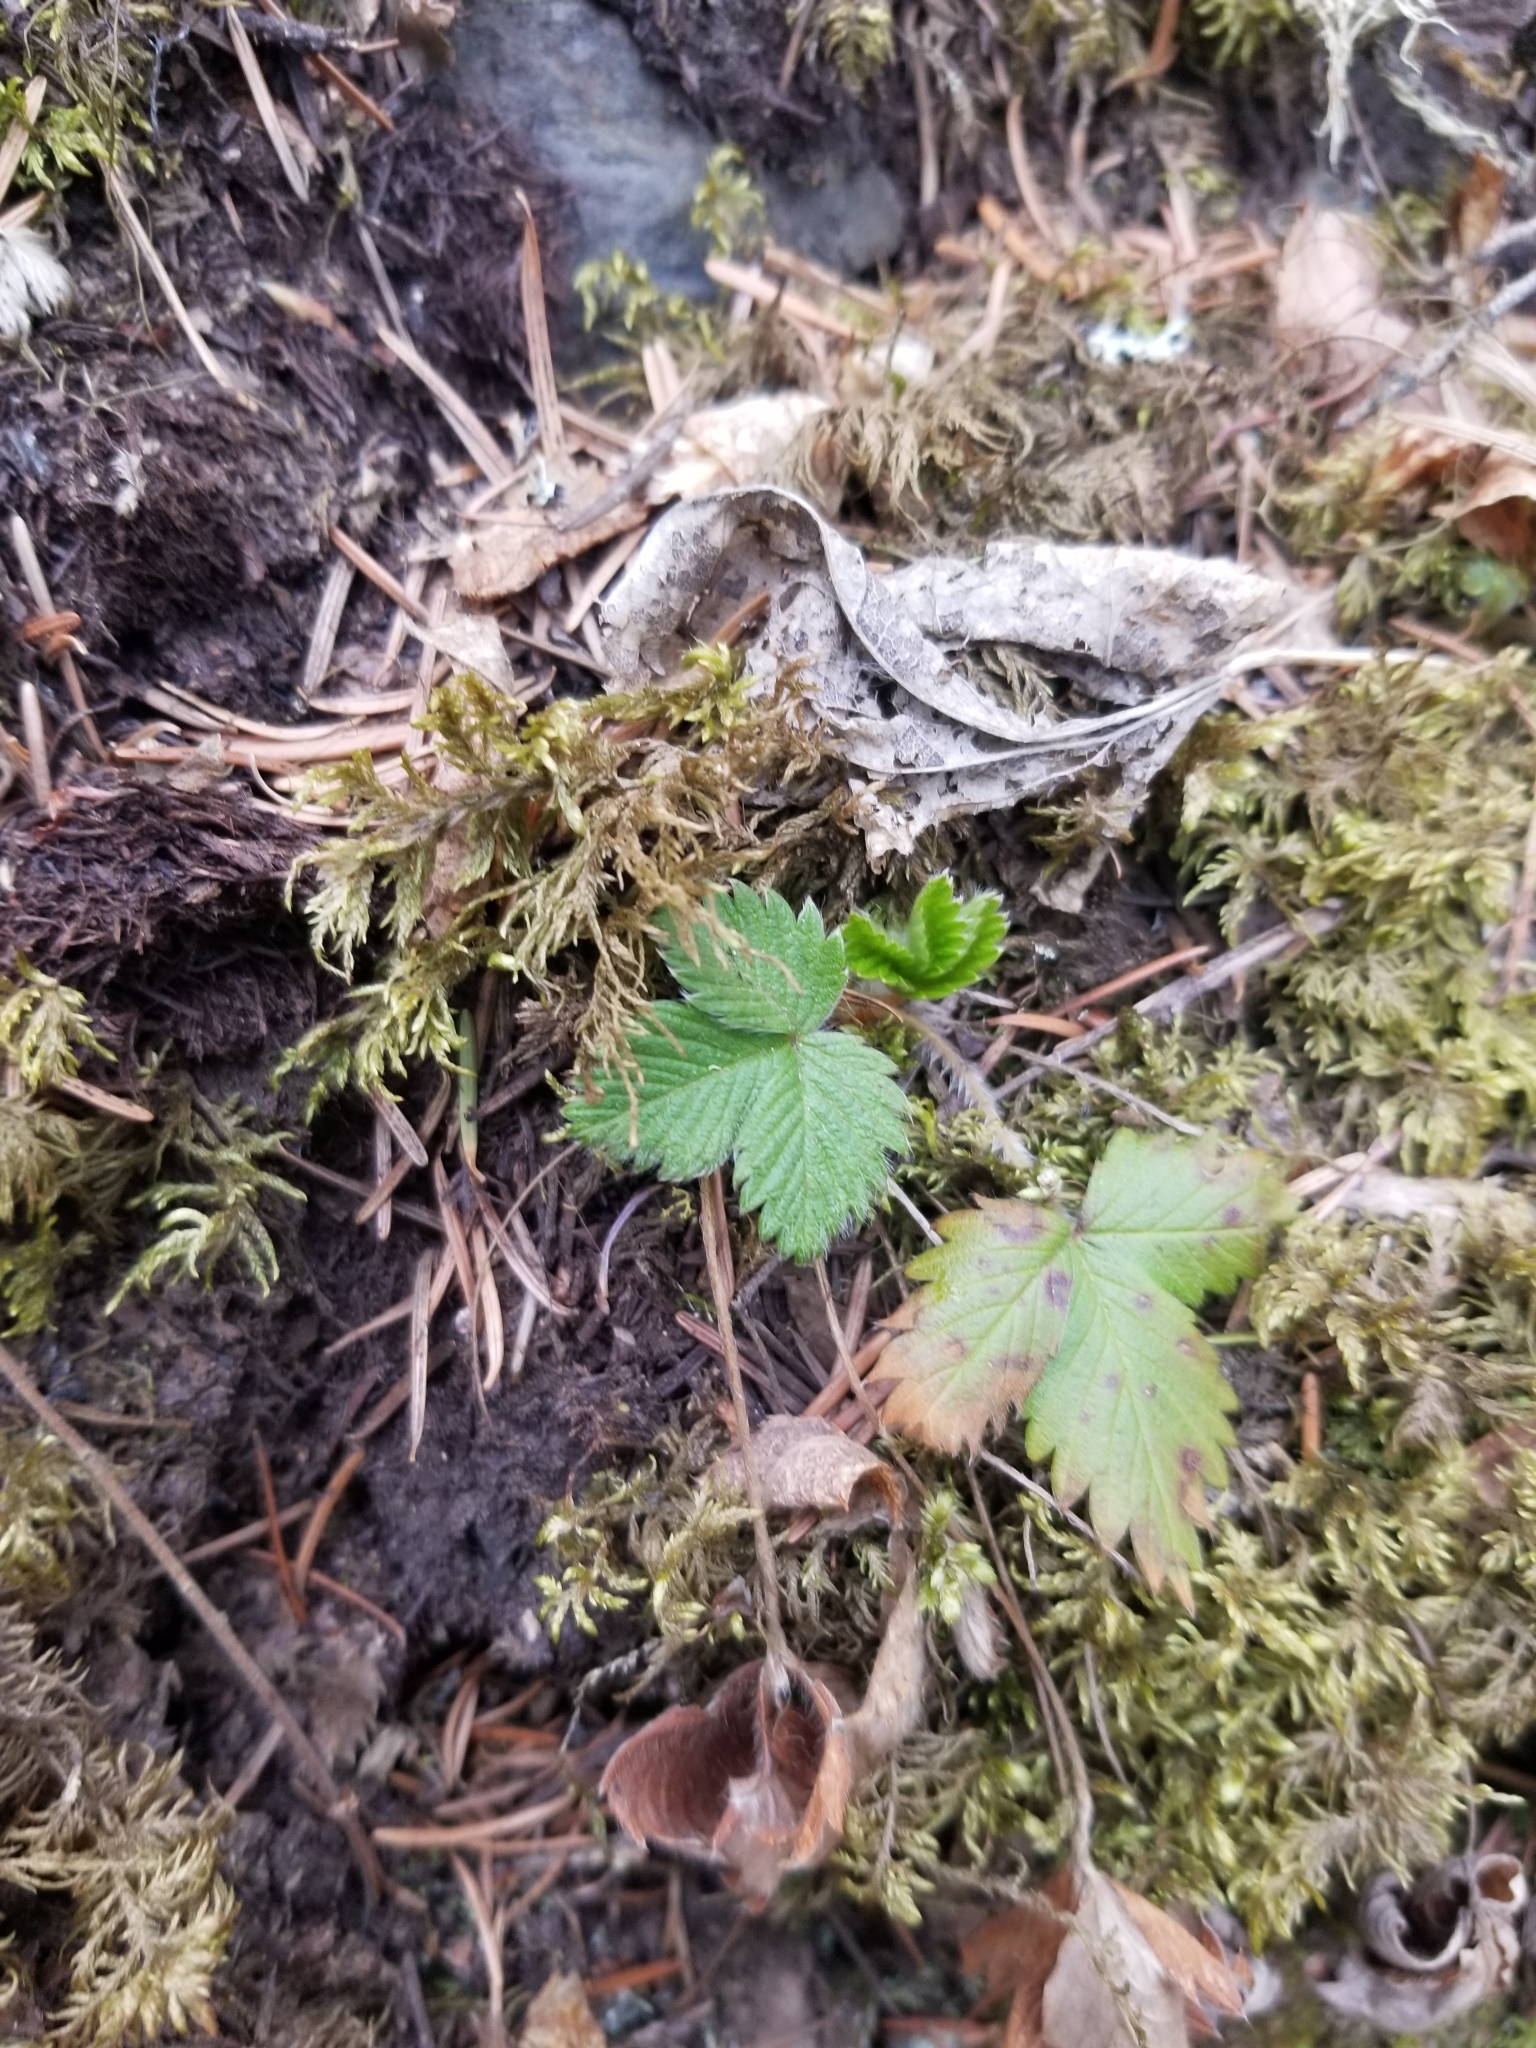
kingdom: Plantae
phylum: Tracheophyta
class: Magnoliopsida
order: Rosales
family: Rosaceae
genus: Fragaria
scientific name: Fragaria vesca
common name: Wild strawberry
